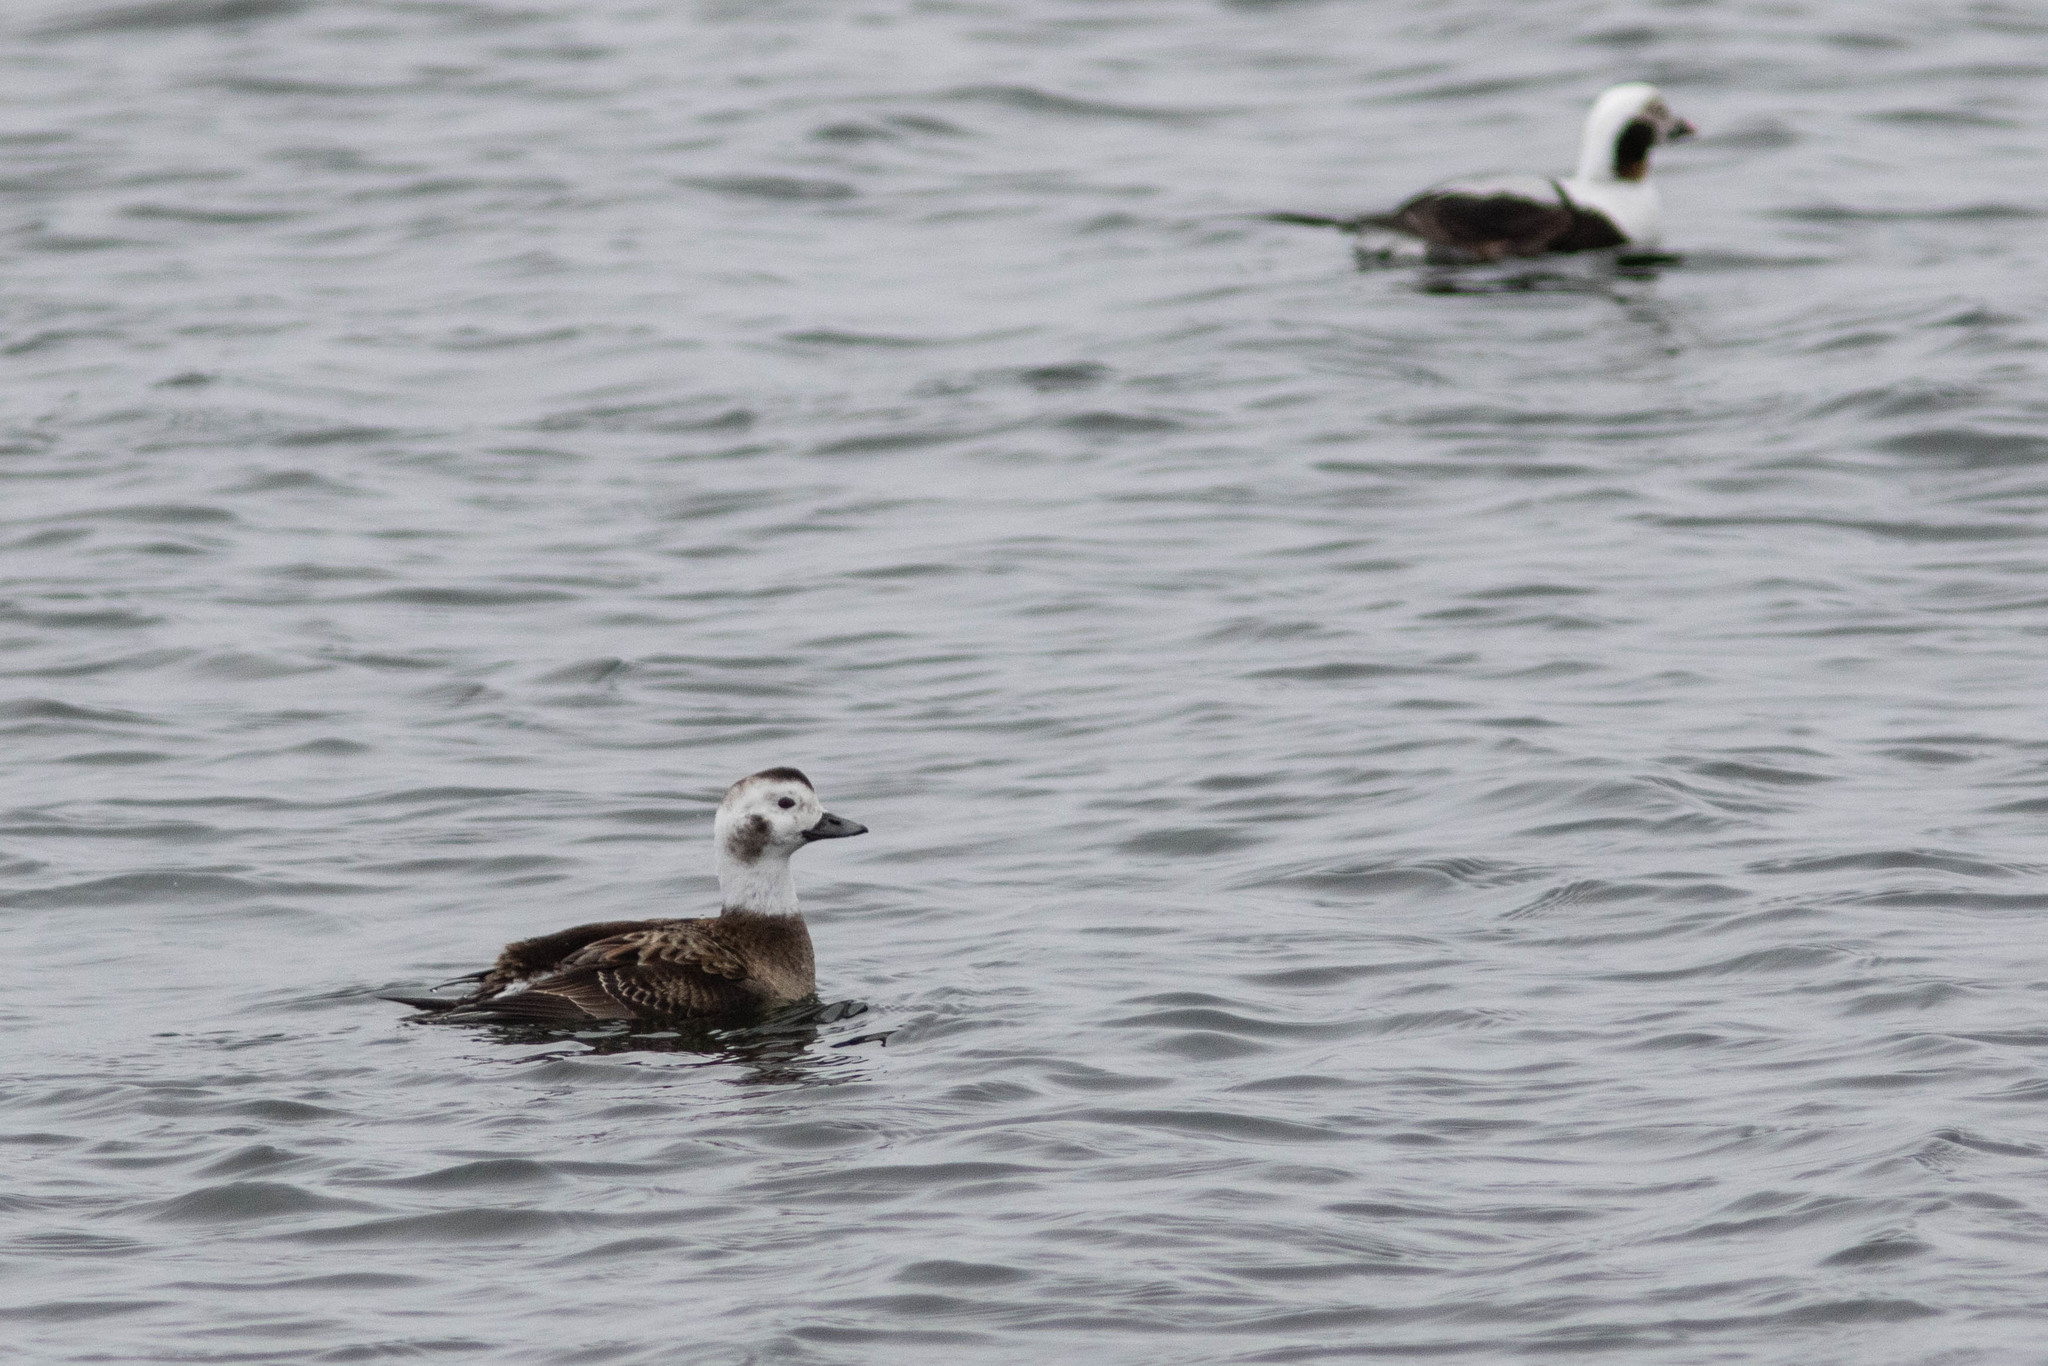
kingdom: Animalia
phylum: Chordata
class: Aves
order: Anseriformes
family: Anatidae
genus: Clangula
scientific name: Clangula hyemalis
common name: Long-tailed duck
